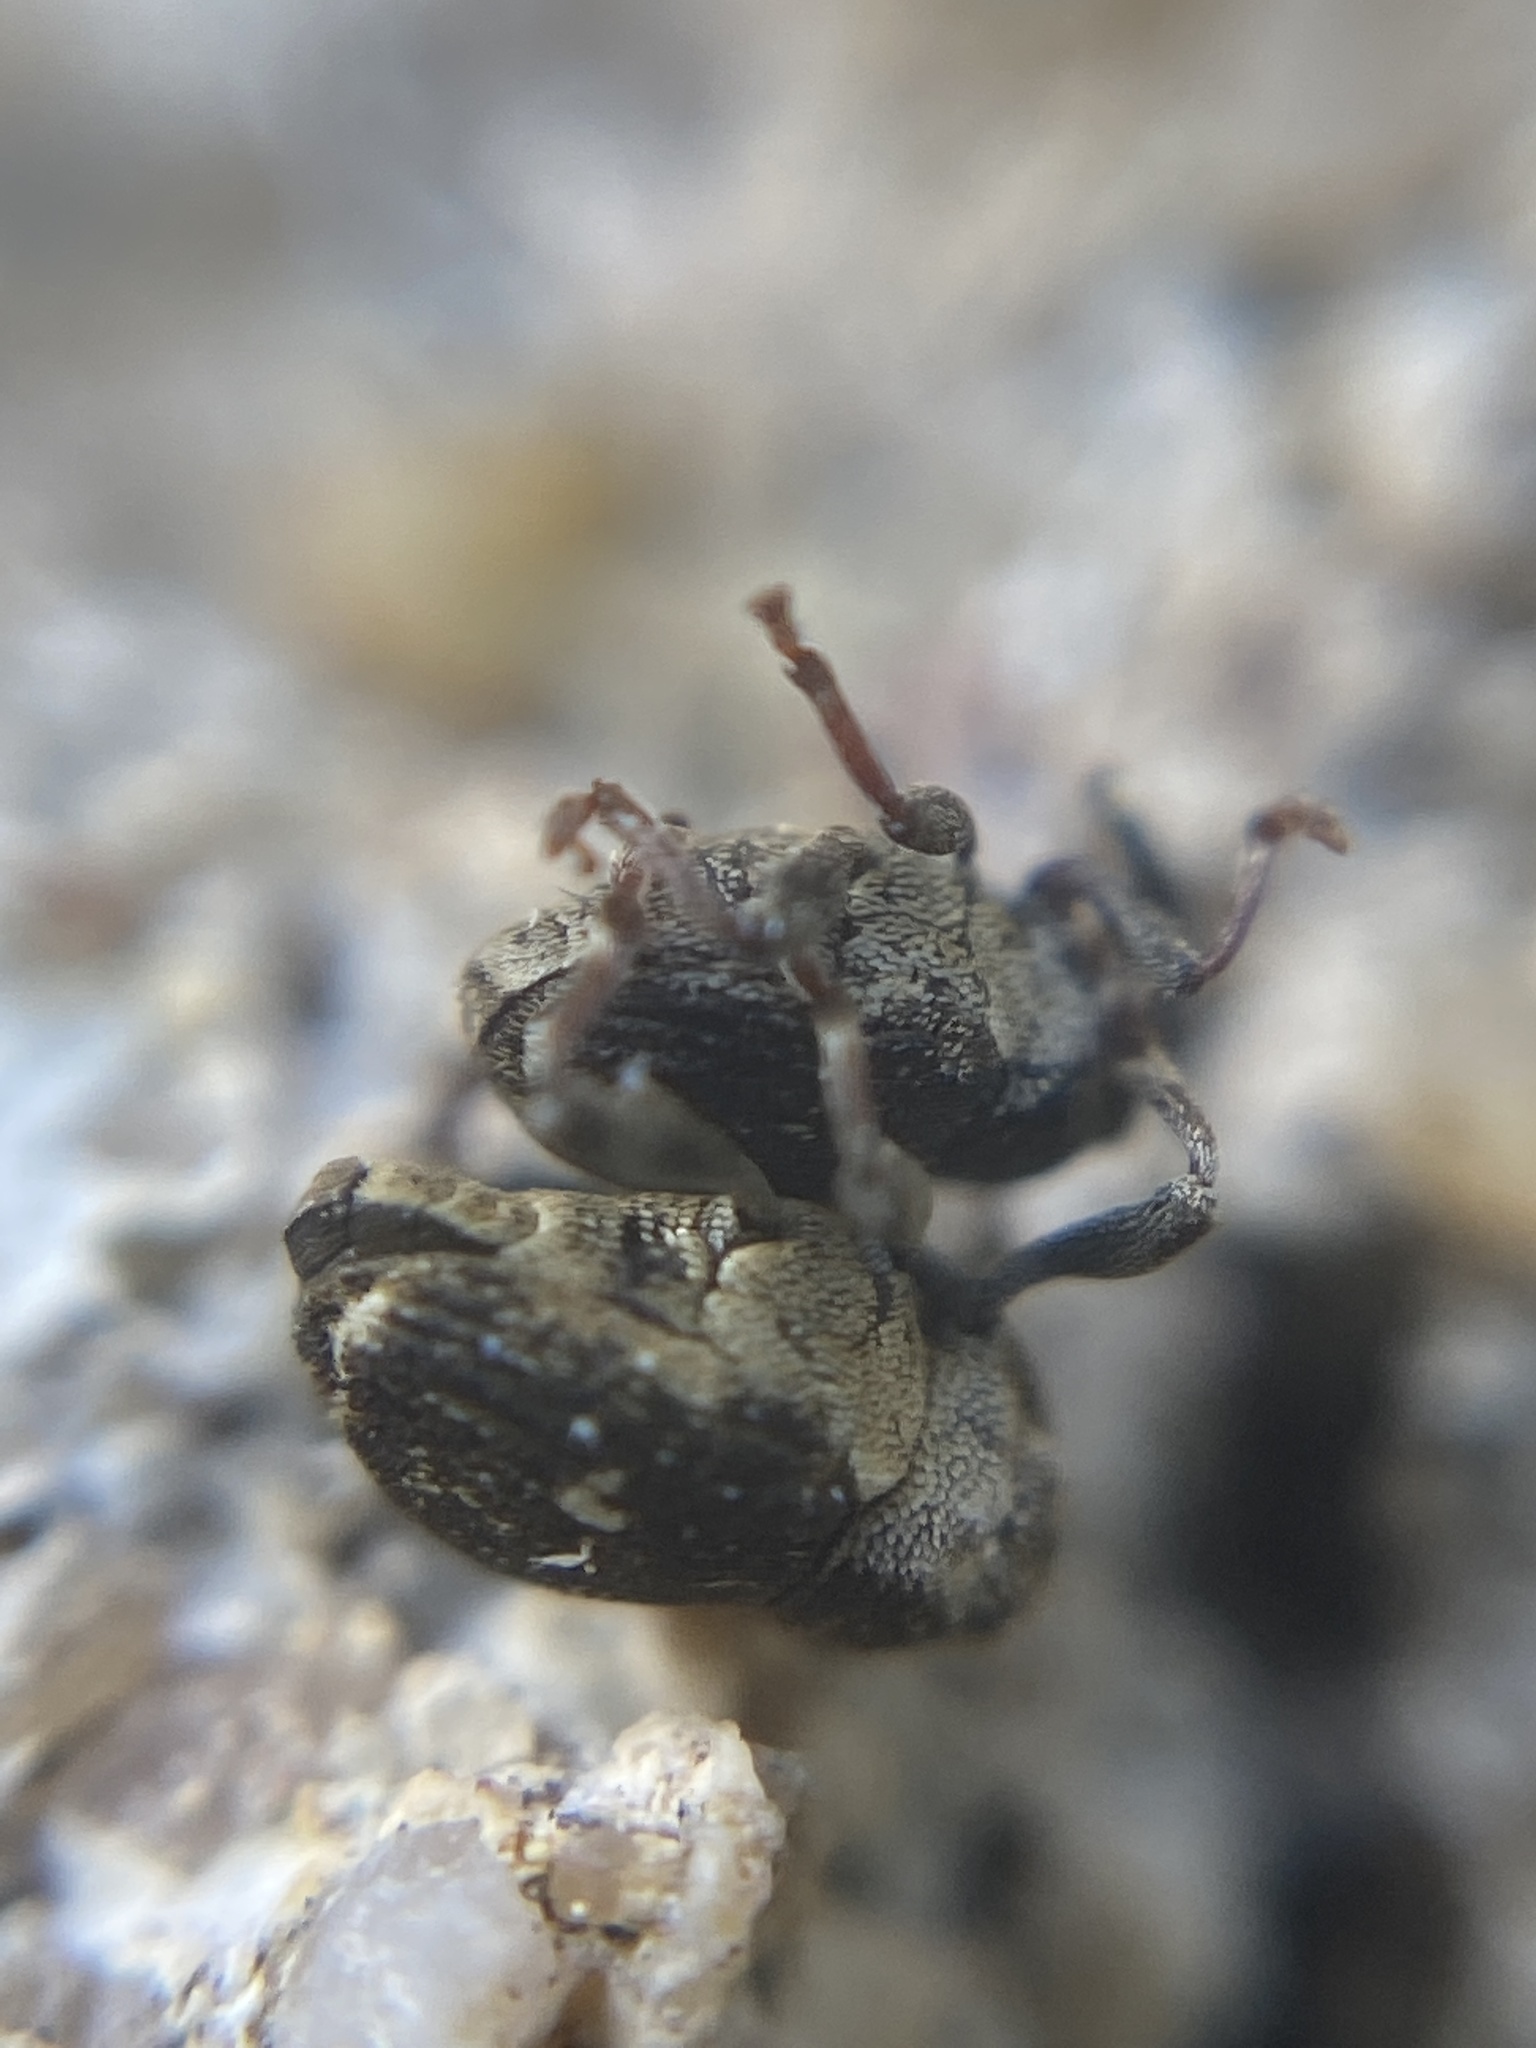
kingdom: Animalia
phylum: Arthropoda
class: Insecta
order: Coleoptera
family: Curculionidae
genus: Nedyus
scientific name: Nedyus quadrimaculatus
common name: Small nettle weevil
